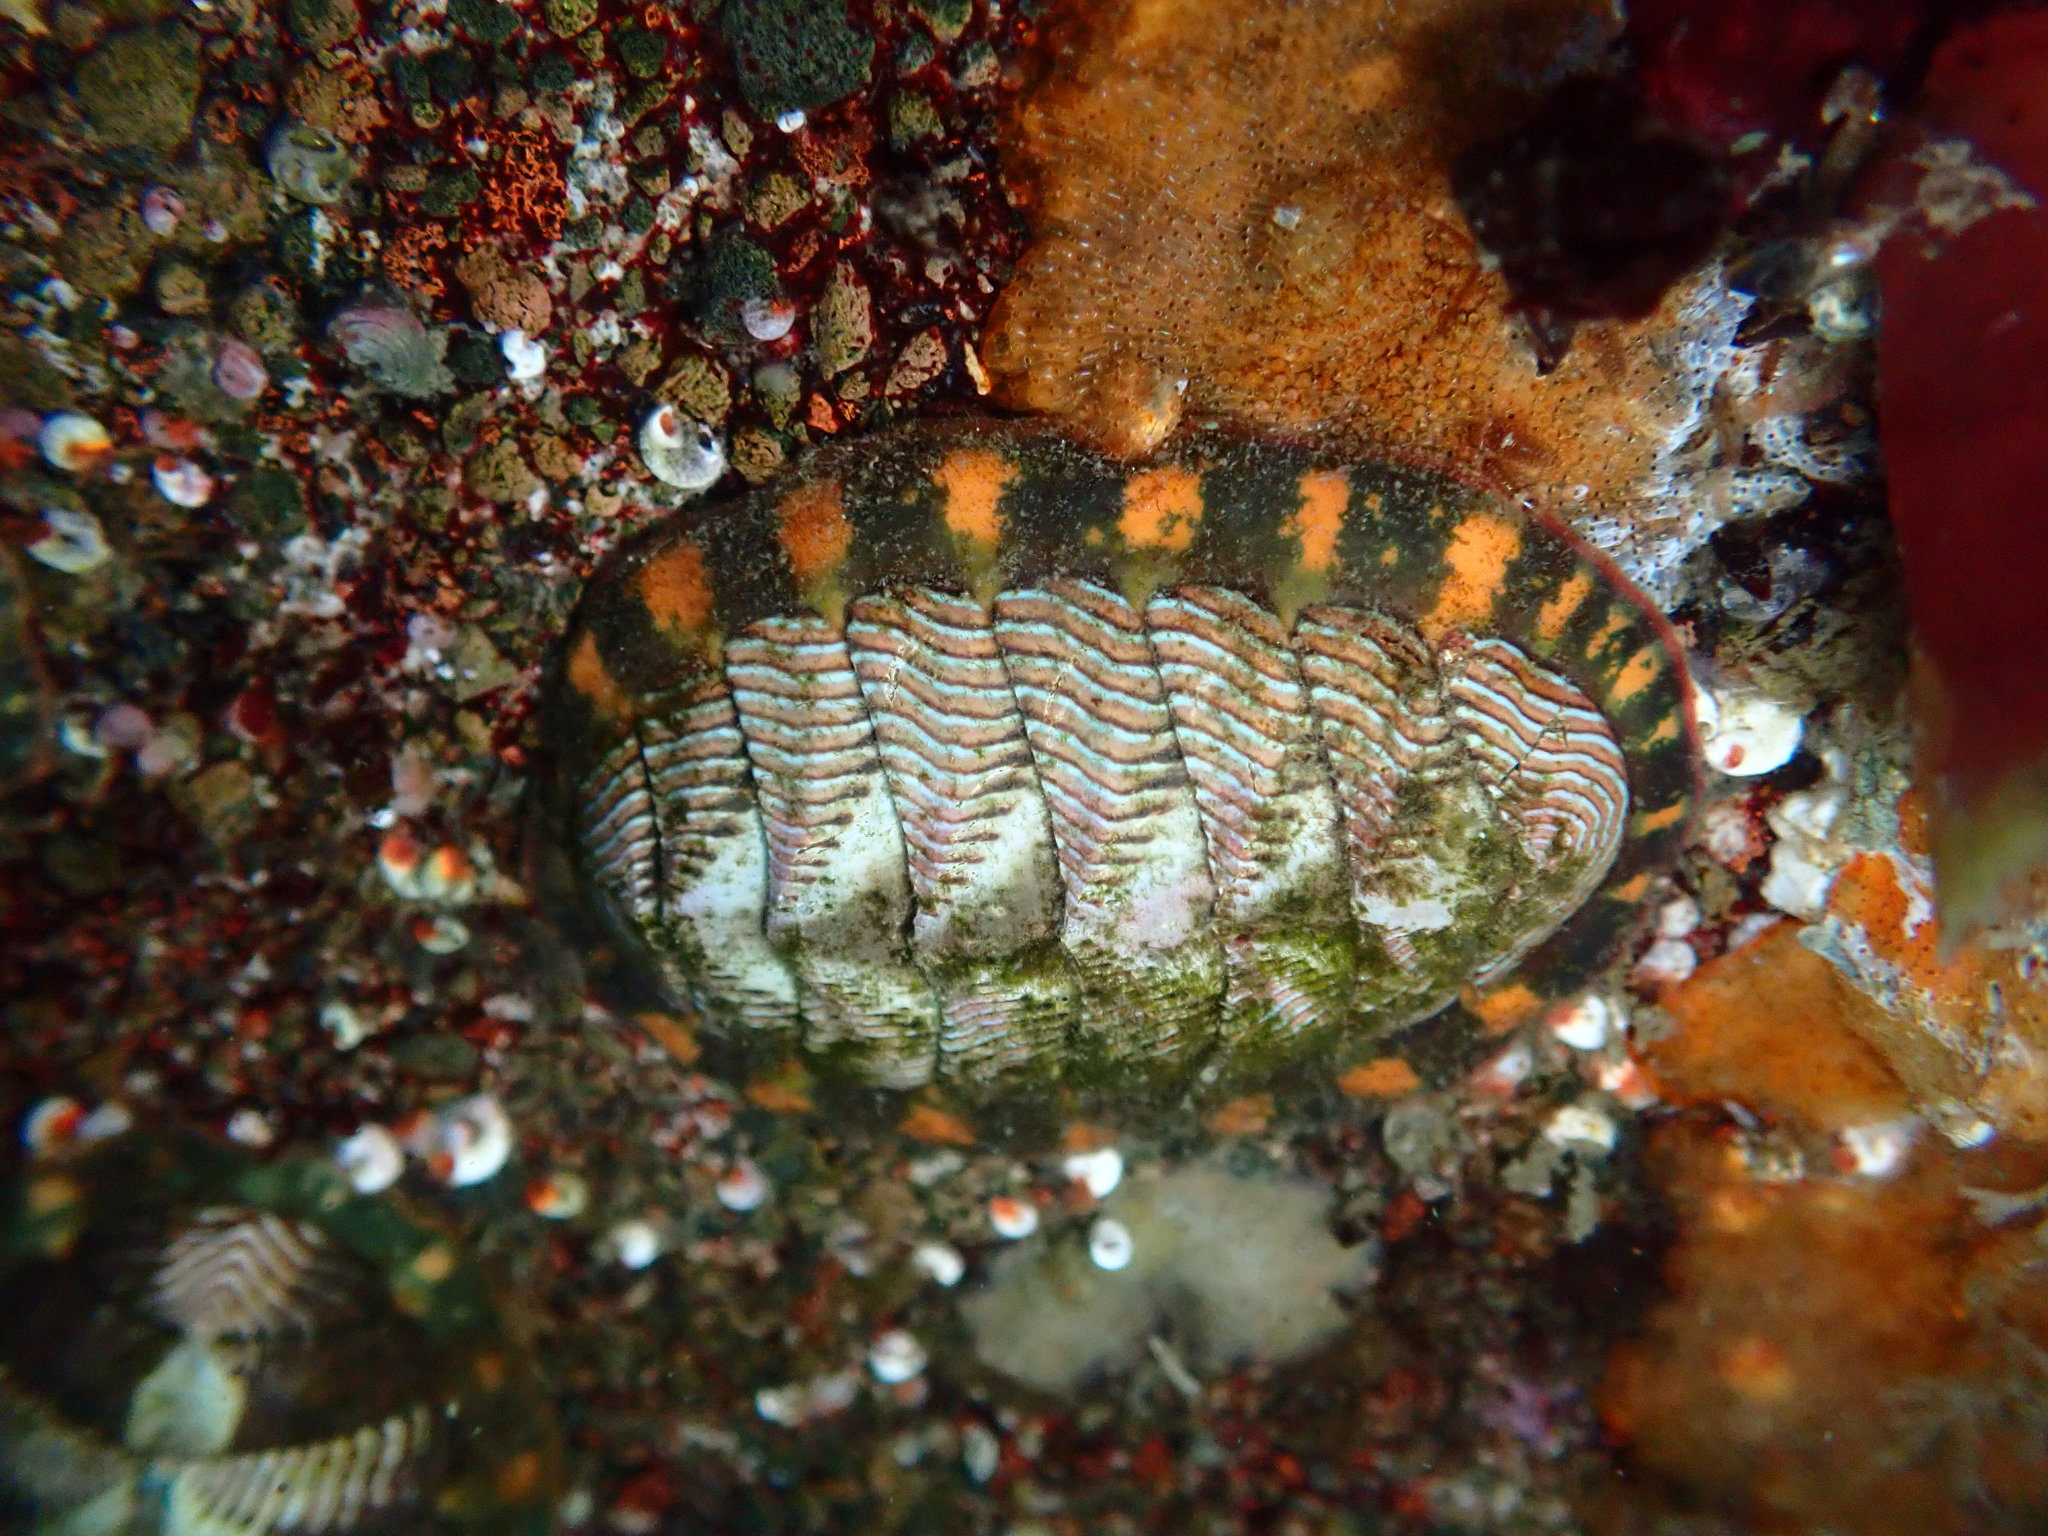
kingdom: Animalia
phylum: Mollusca
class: Polyplacophora
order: Chitonida
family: Tonicellidae
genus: Tonicella
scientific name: Tonicella lineata
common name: Lined chiton
